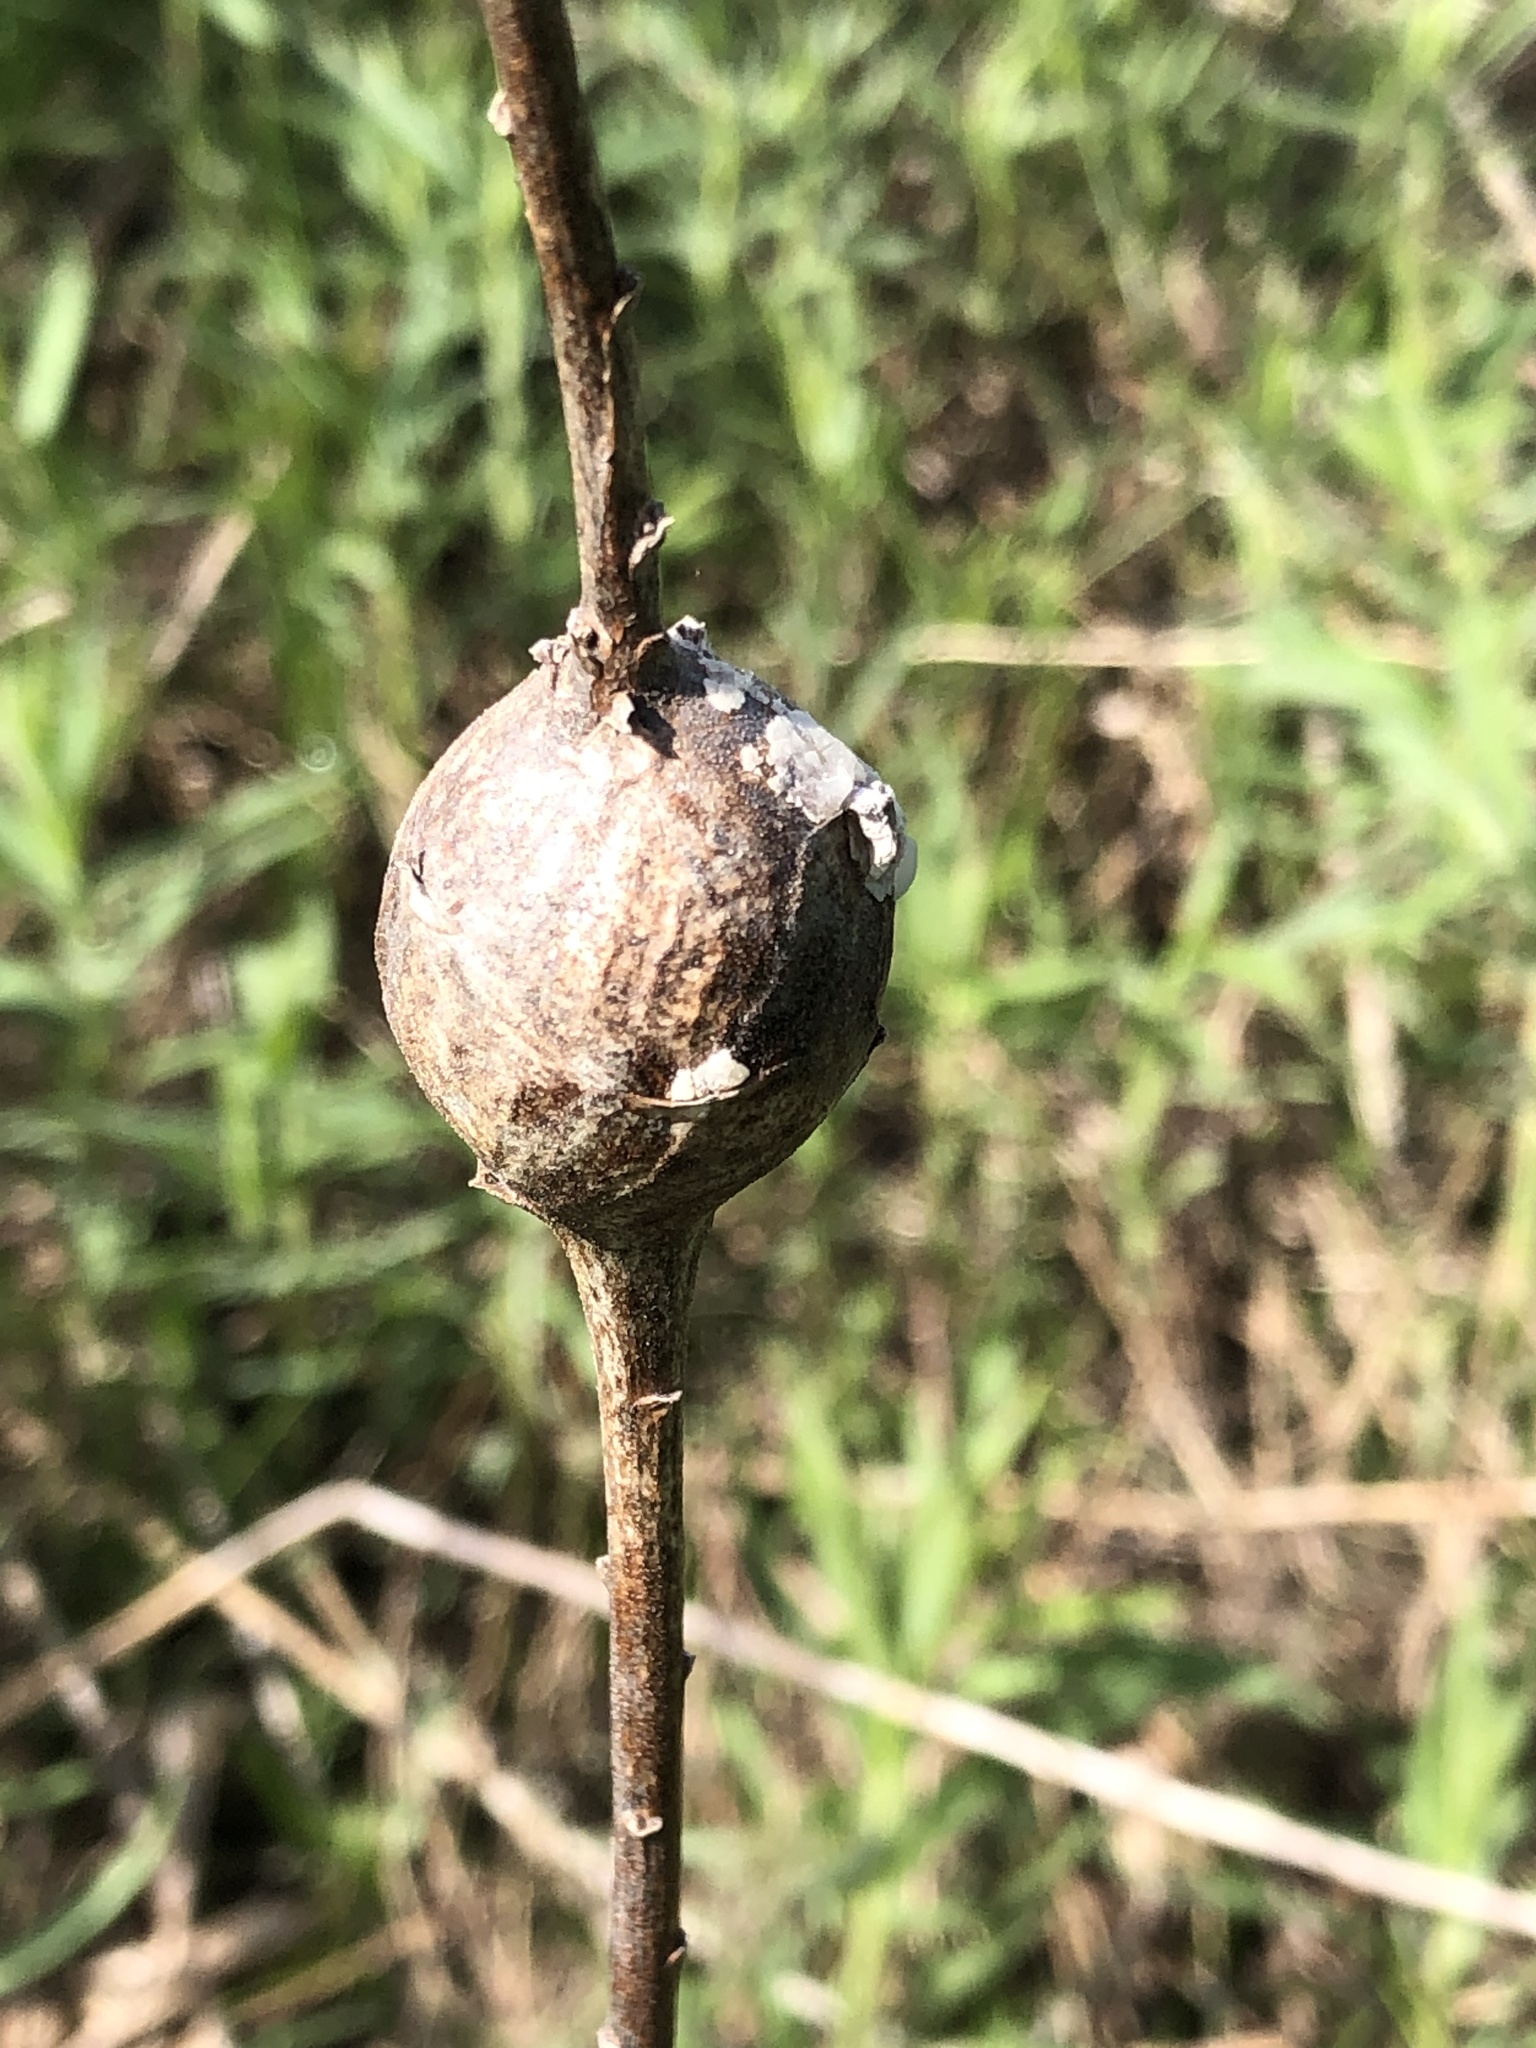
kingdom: Animalia
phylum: Arthropoda
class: Insecta
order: Diptera
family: Tephritidae
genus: Eurosta
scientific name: Eurosta solidaginis
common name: Goldenrod gall fly
